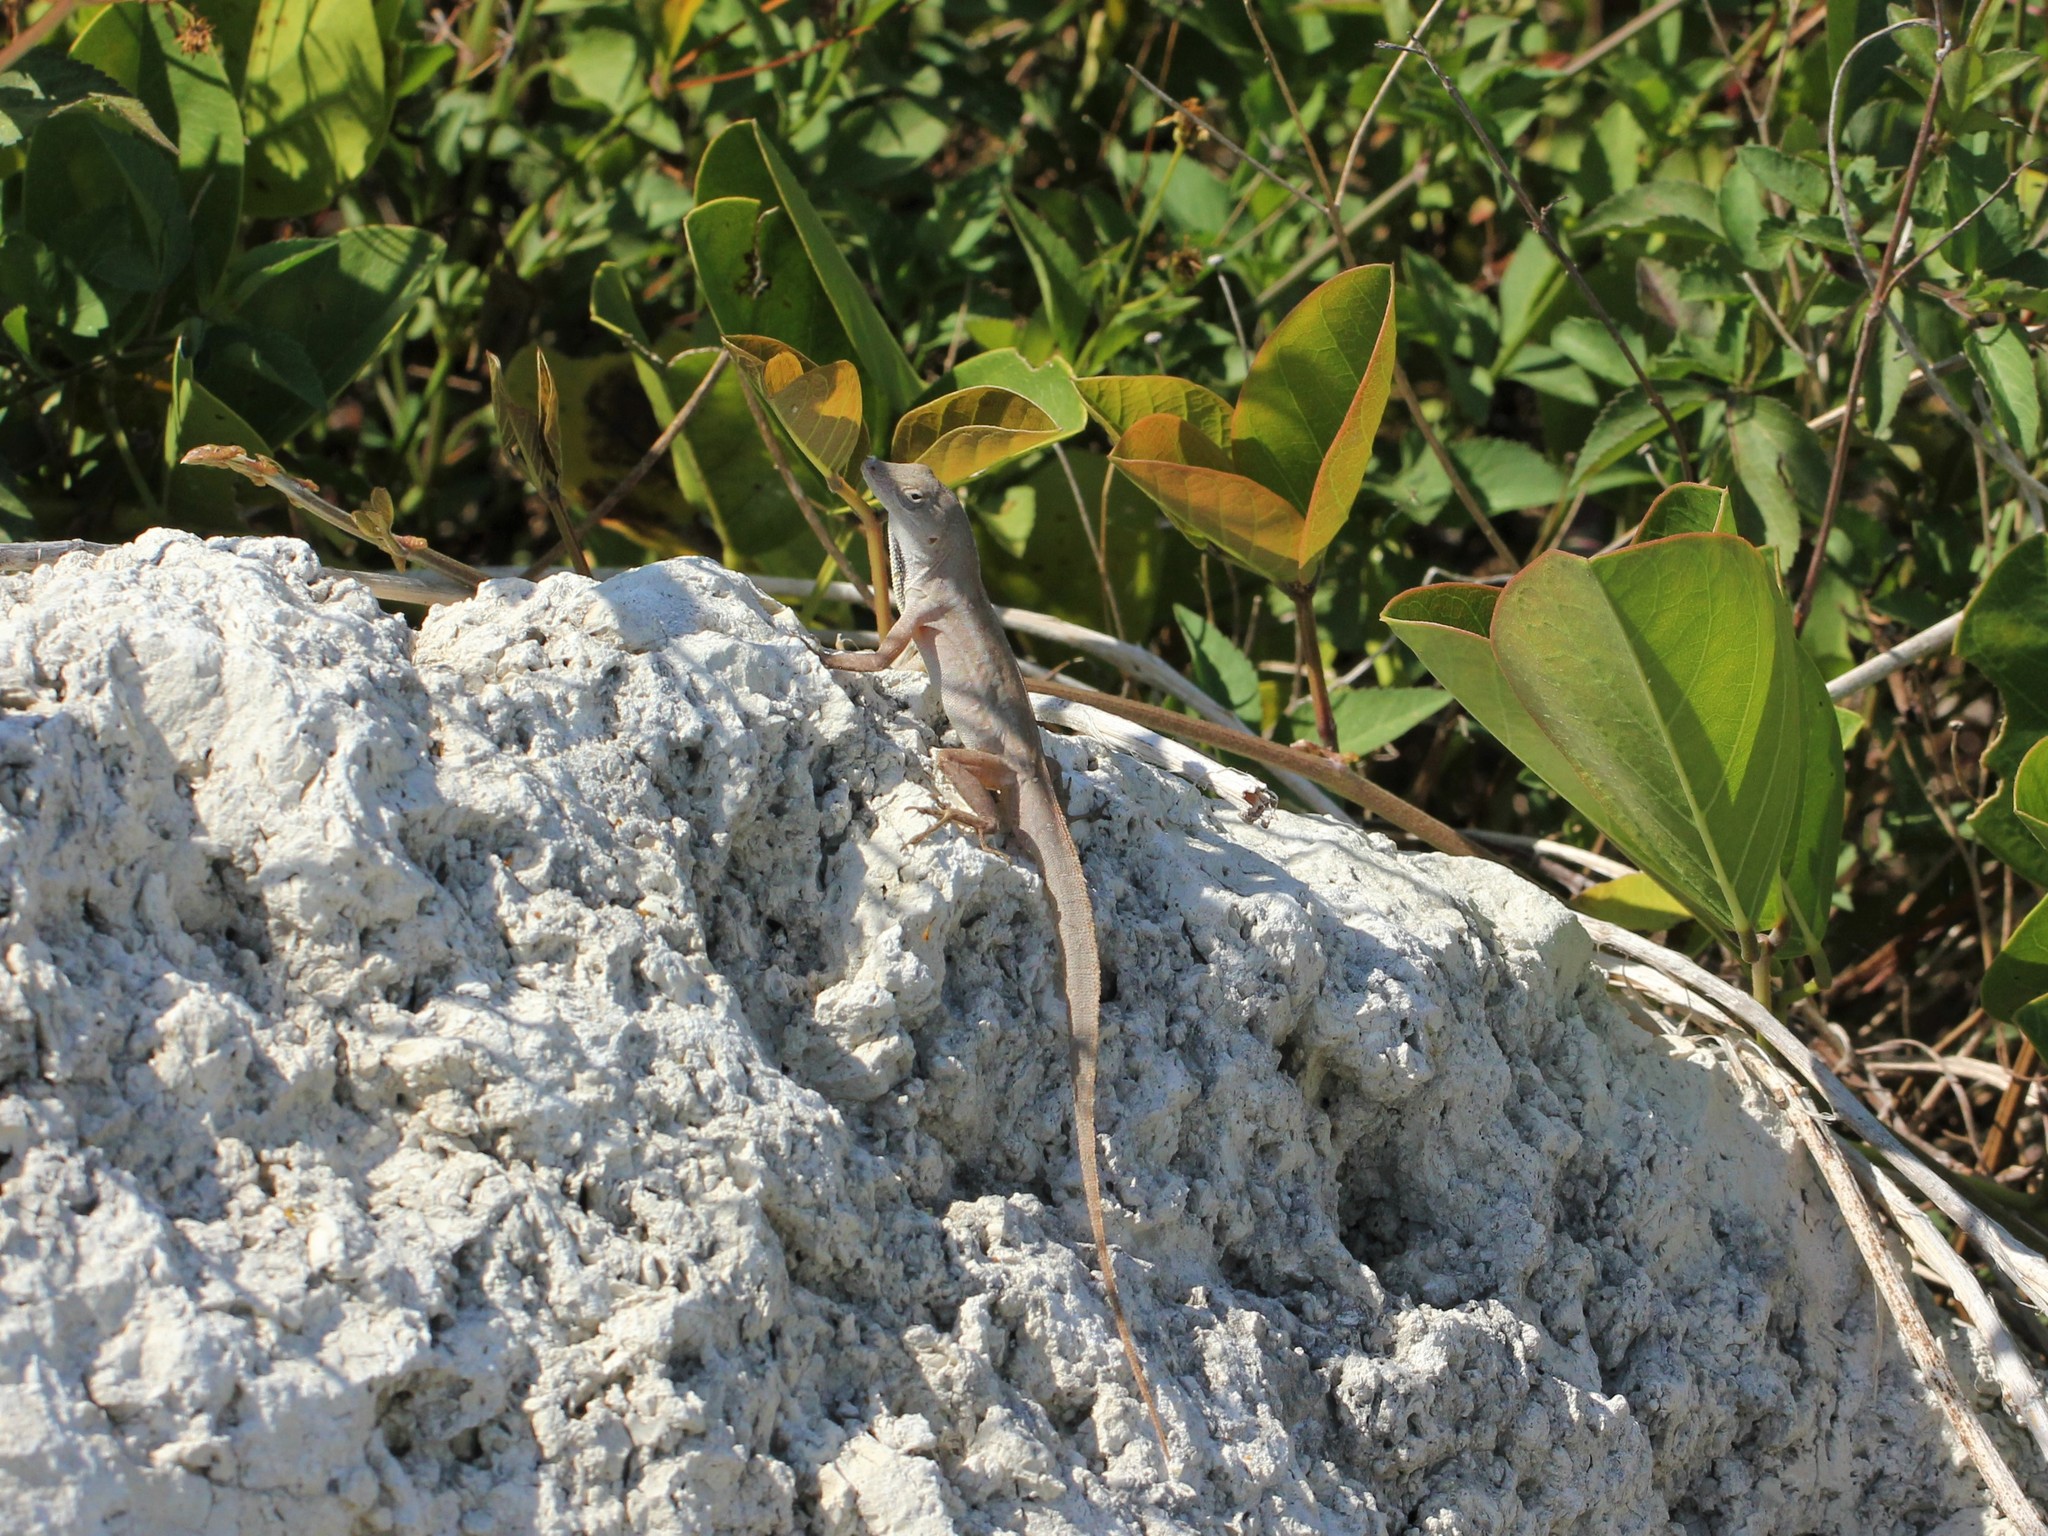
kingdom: Animalia
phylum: Chordata
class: Squamata
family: Dactyloidae
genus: Anolis
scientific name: Anolis sagrei
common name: Brown anole
